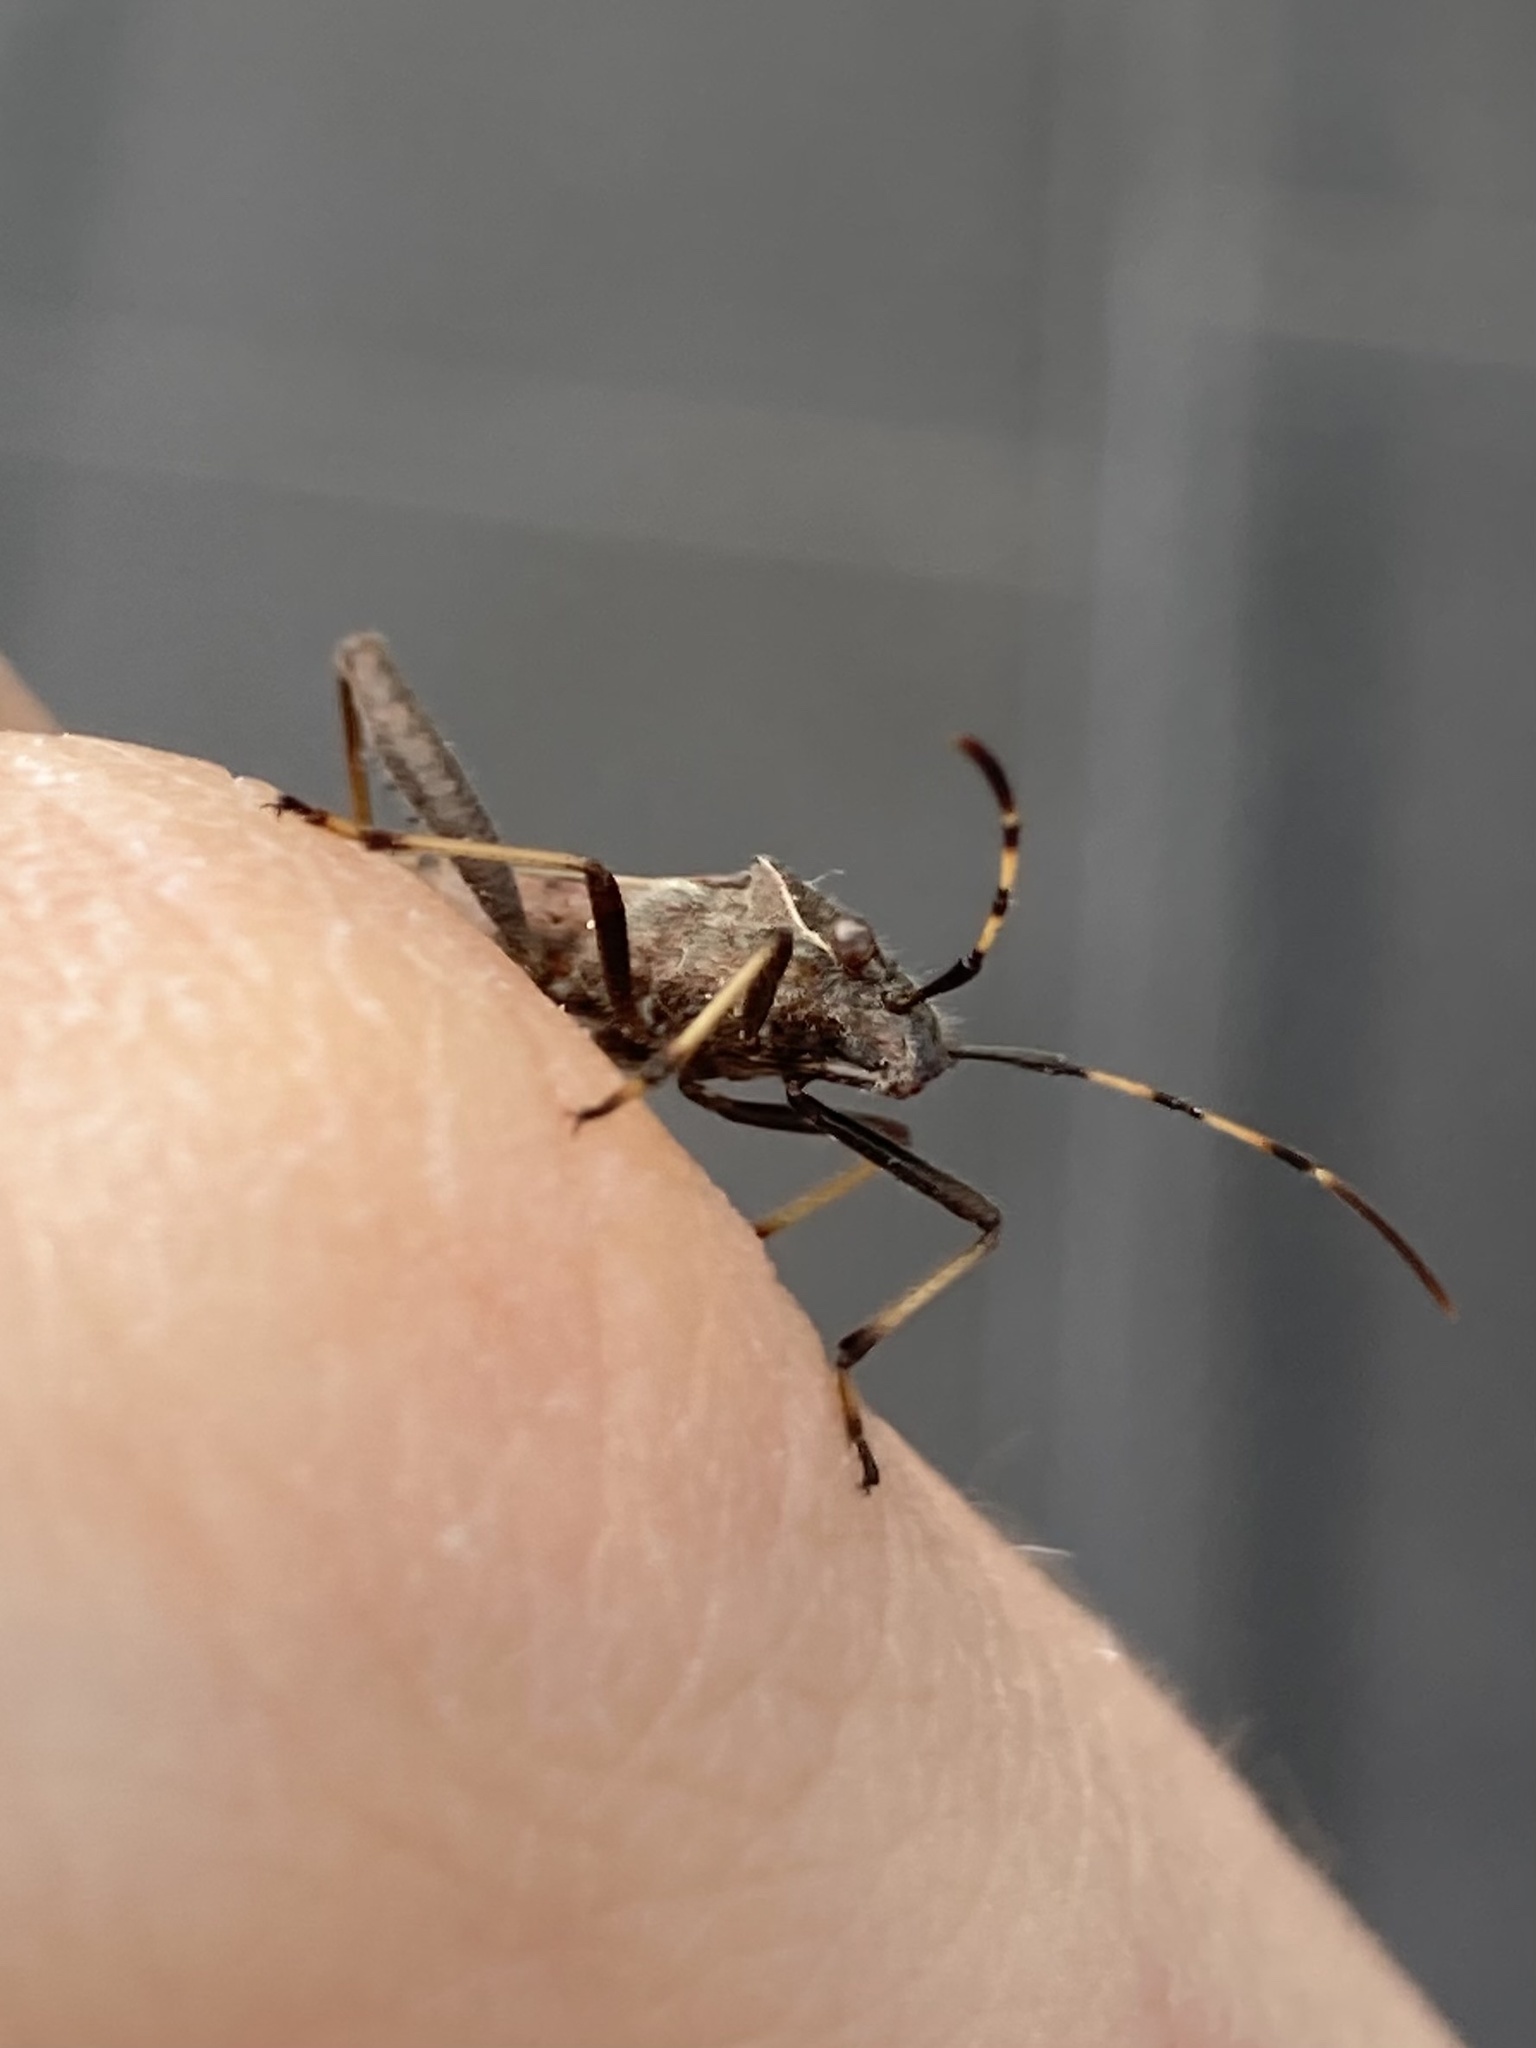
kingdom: Animalia
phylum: Arthropoda
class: Insecta
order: Hemiptera
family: Alydidae
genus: Camptopus
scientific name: Camptopus lateralis
